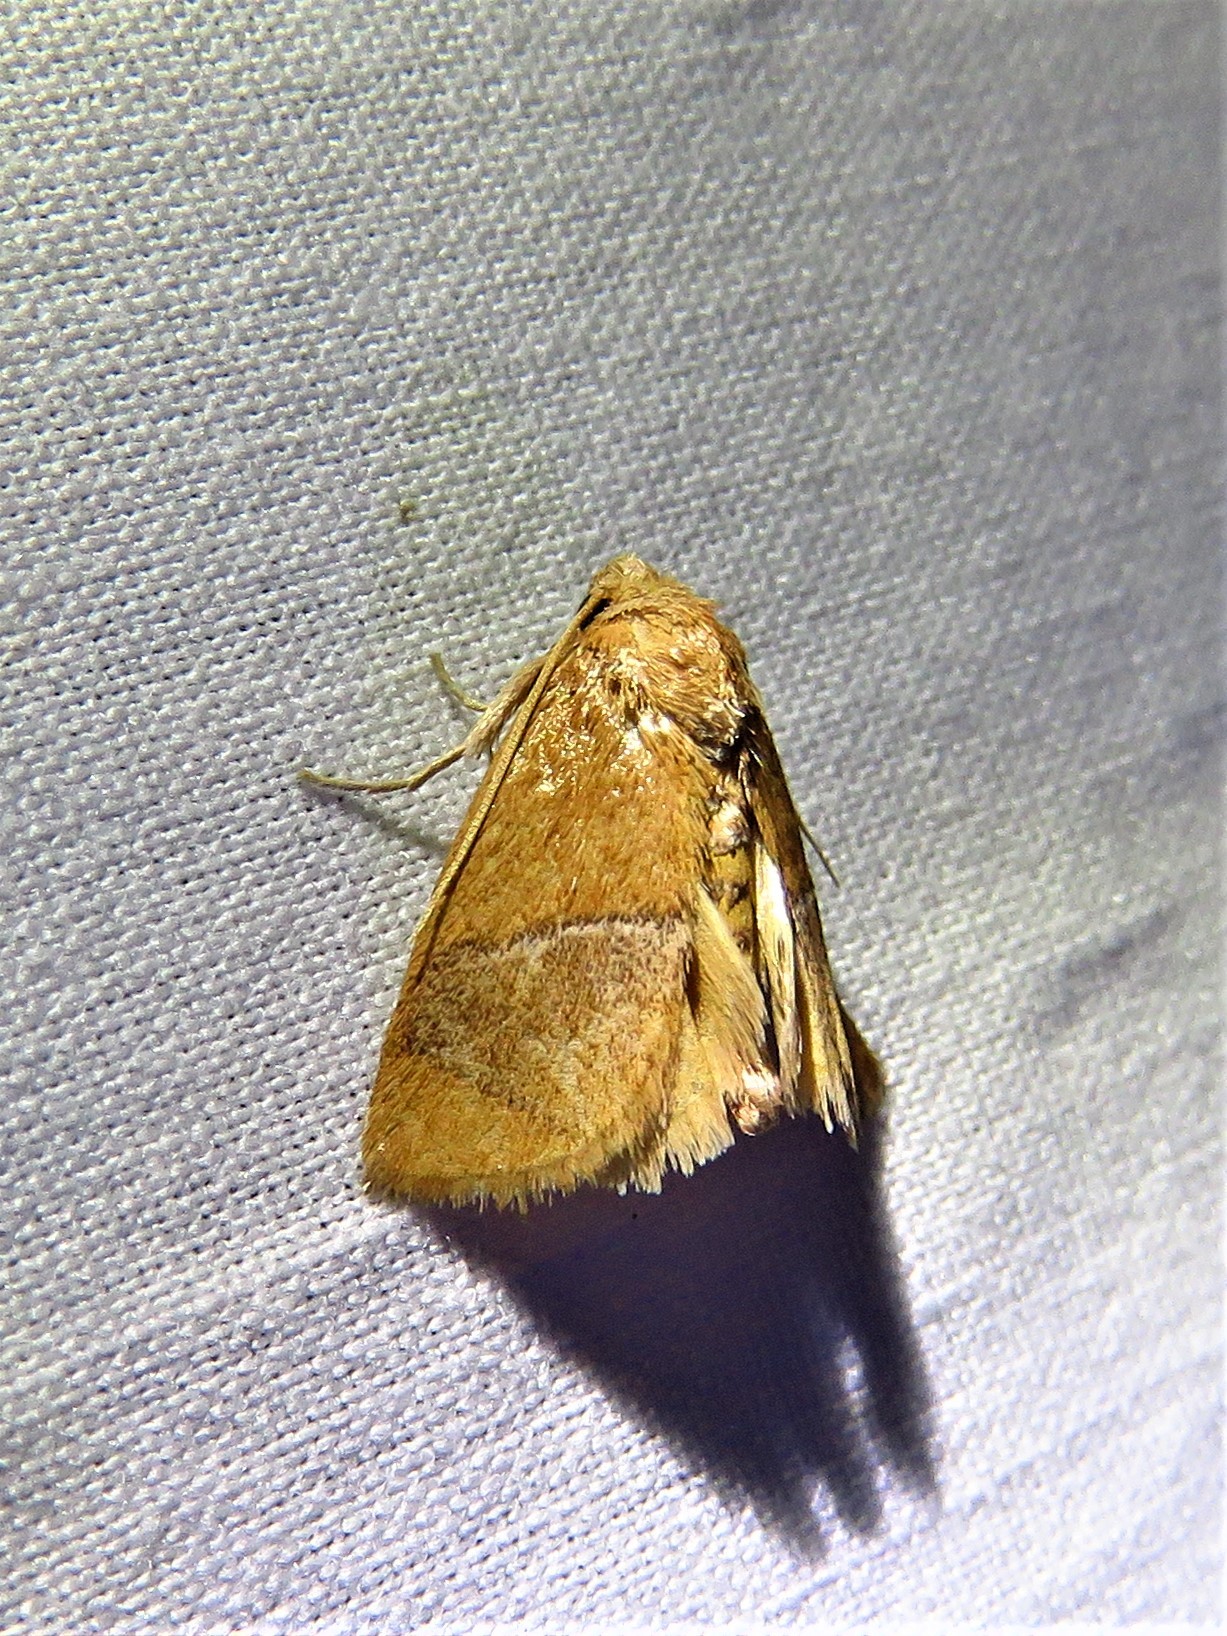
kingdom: Animalia
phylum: Arthropoda
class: Insecta
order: Lepidoptera
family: Limacodidae
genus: Apoda
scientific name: Apoda latomia
